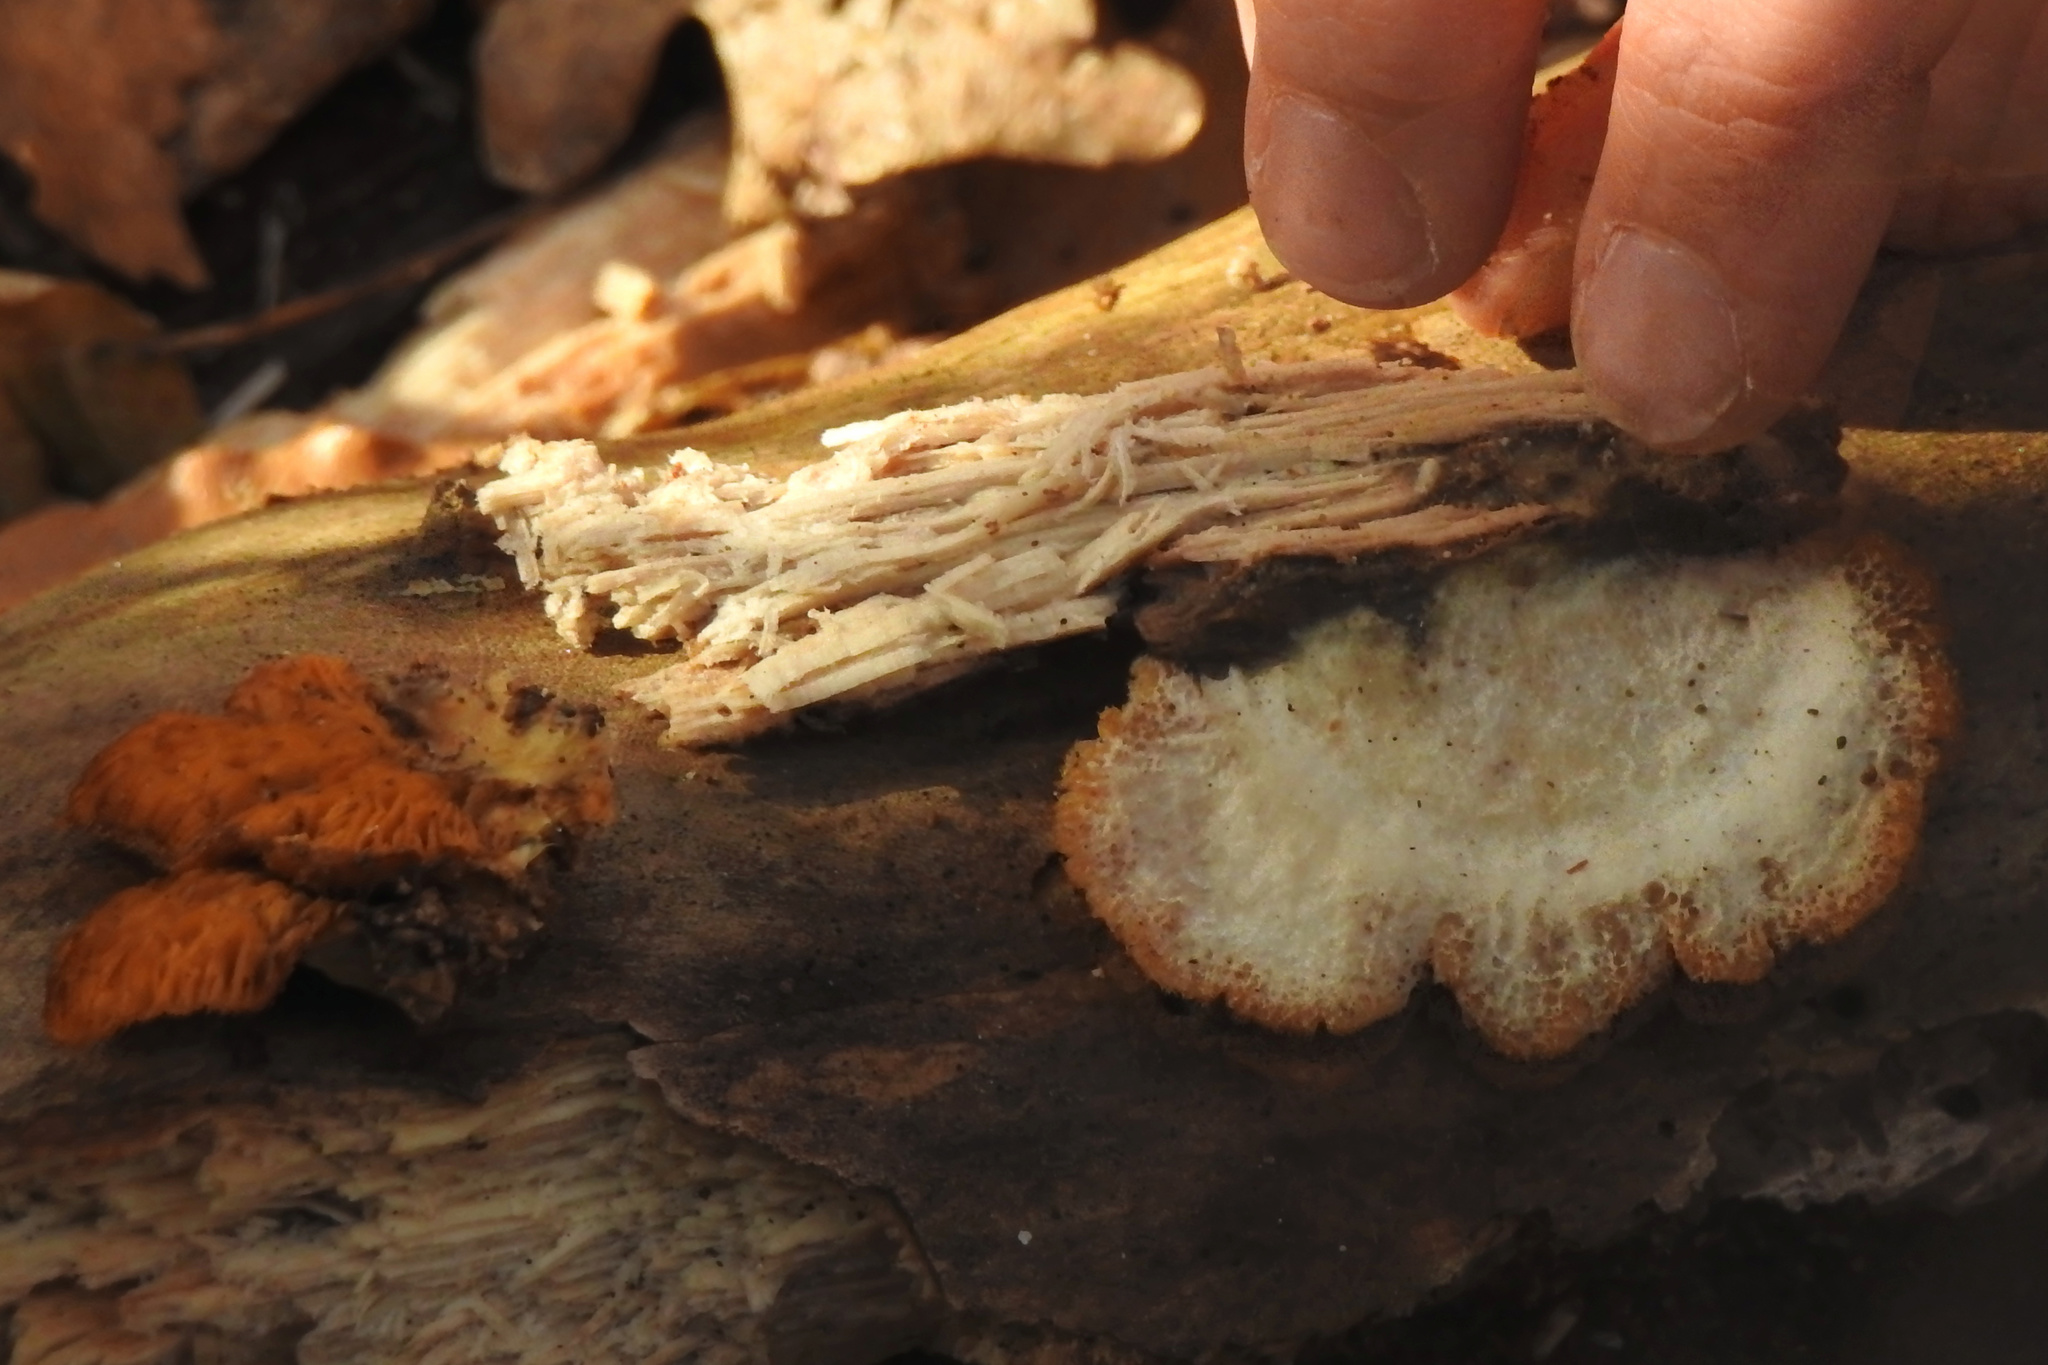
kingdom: Fungi
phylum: Basidiomycota
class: Agaricomycetes
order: Agaricales
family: Phyllotopsidaceae
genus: Phyllotopsis
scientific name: Phyllotopsis nidulans
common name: Orange mock oyster
